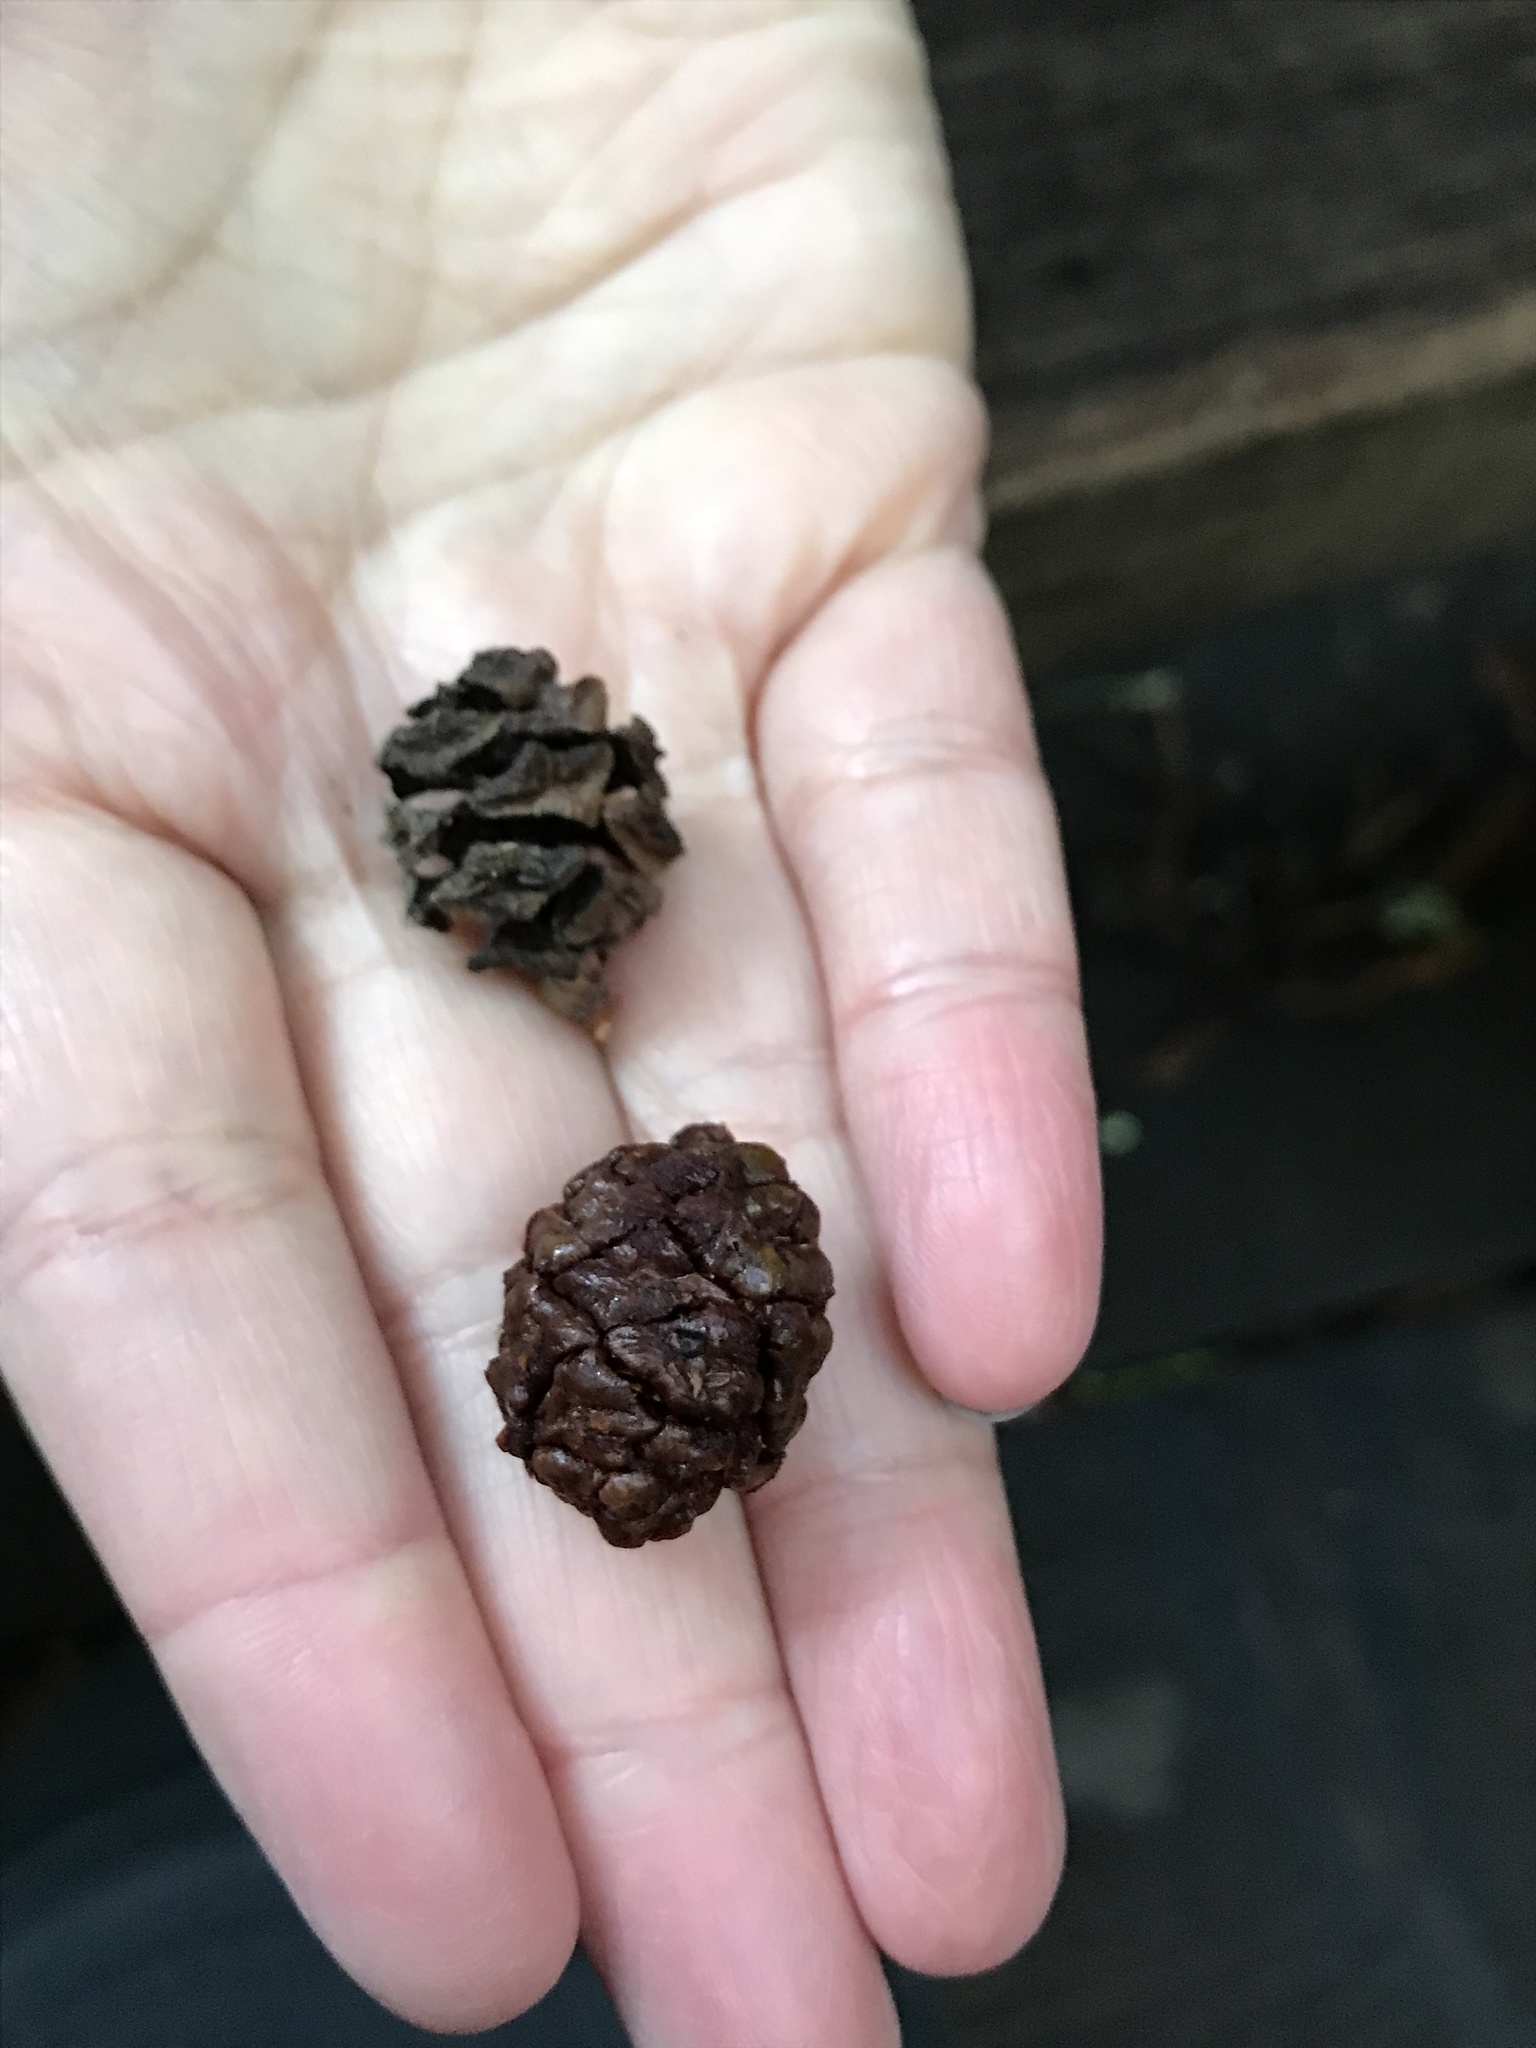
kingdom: Plantae
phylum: Tracheophyta
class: Pinopsida
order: Pinales
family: Cupressaceae
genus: Sequoia
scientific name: Sequoia sempervirens
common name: Coast redwood
